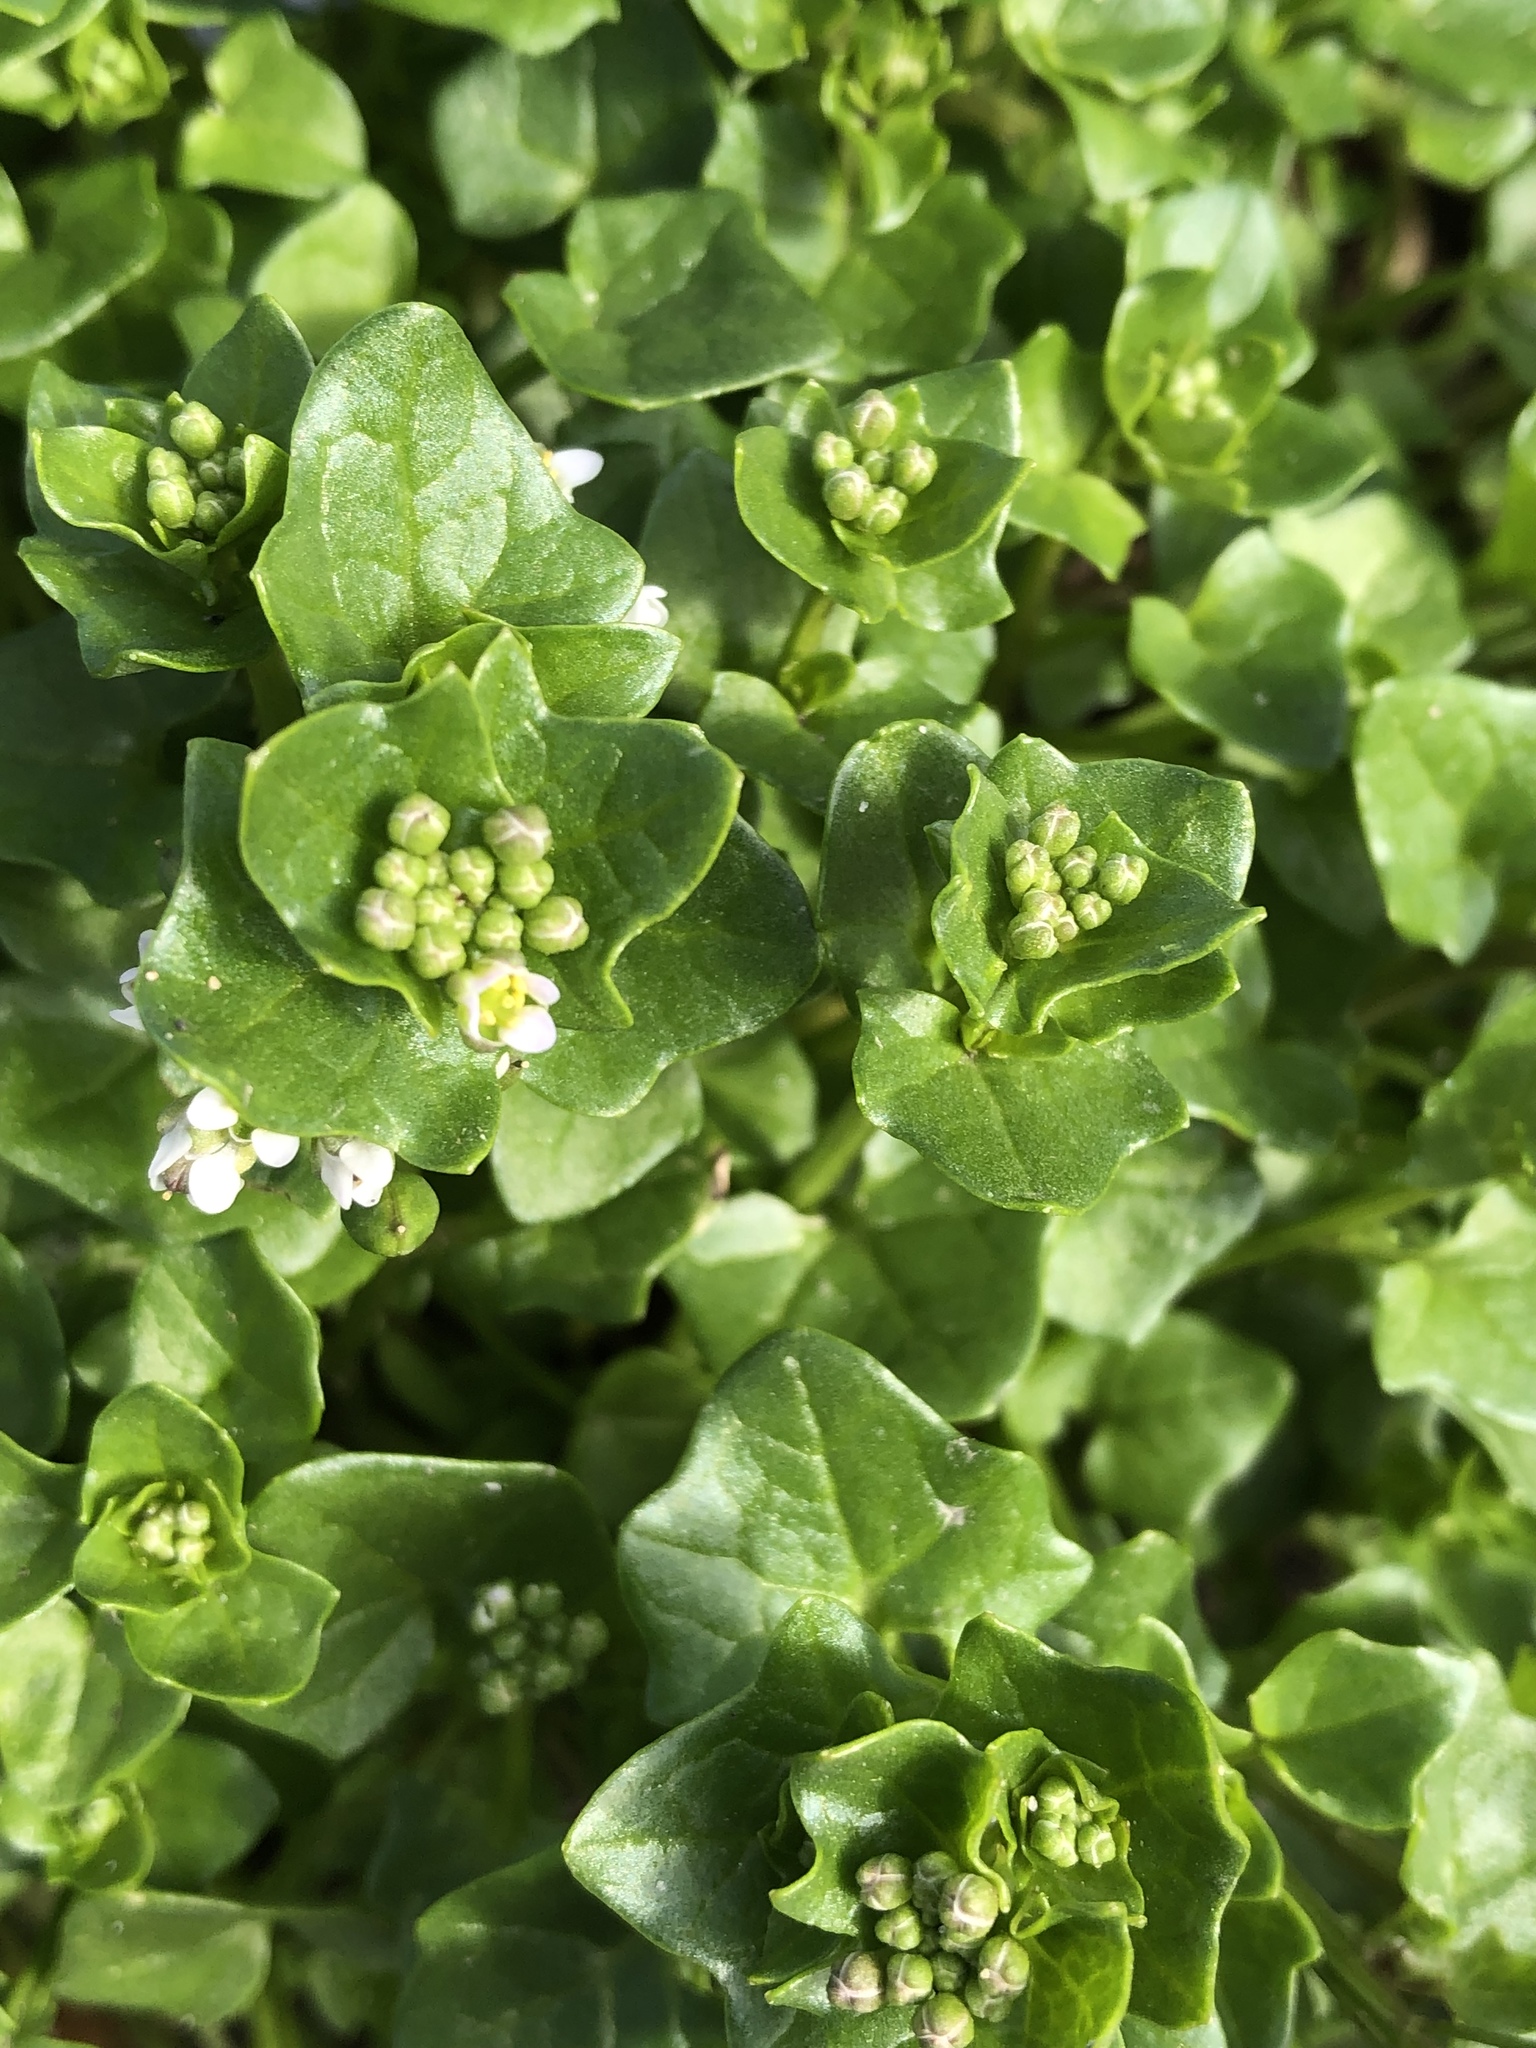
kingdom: Plantae
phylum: Tracheophyta
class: Magnoliopsida
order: Brassicales
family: Brassicaceae
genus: Cochlearia
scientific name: Cochlearia danica
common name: Early scurvygrass
